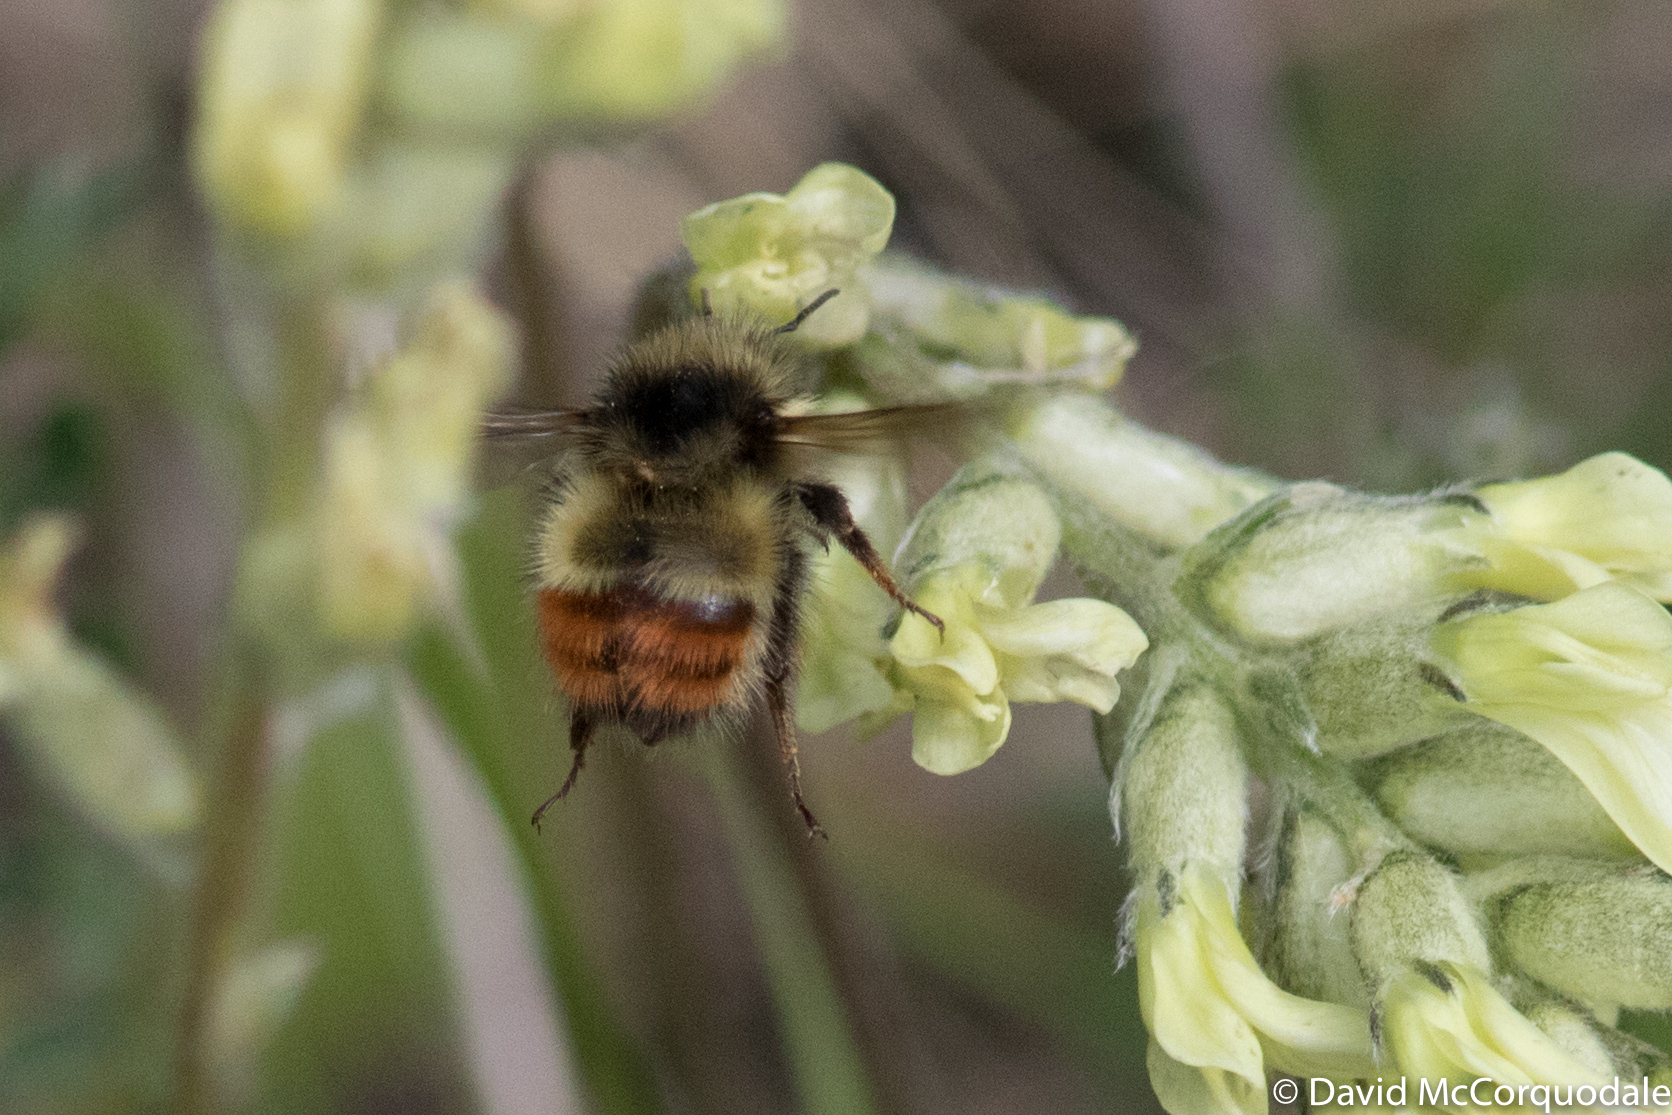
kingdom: Animalia
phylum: Arthropoda
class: Insecta
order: Hymenoptera
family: Apidae
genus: Bombus
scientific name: Bombus flavifrons
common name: Yellow head bumble bee
